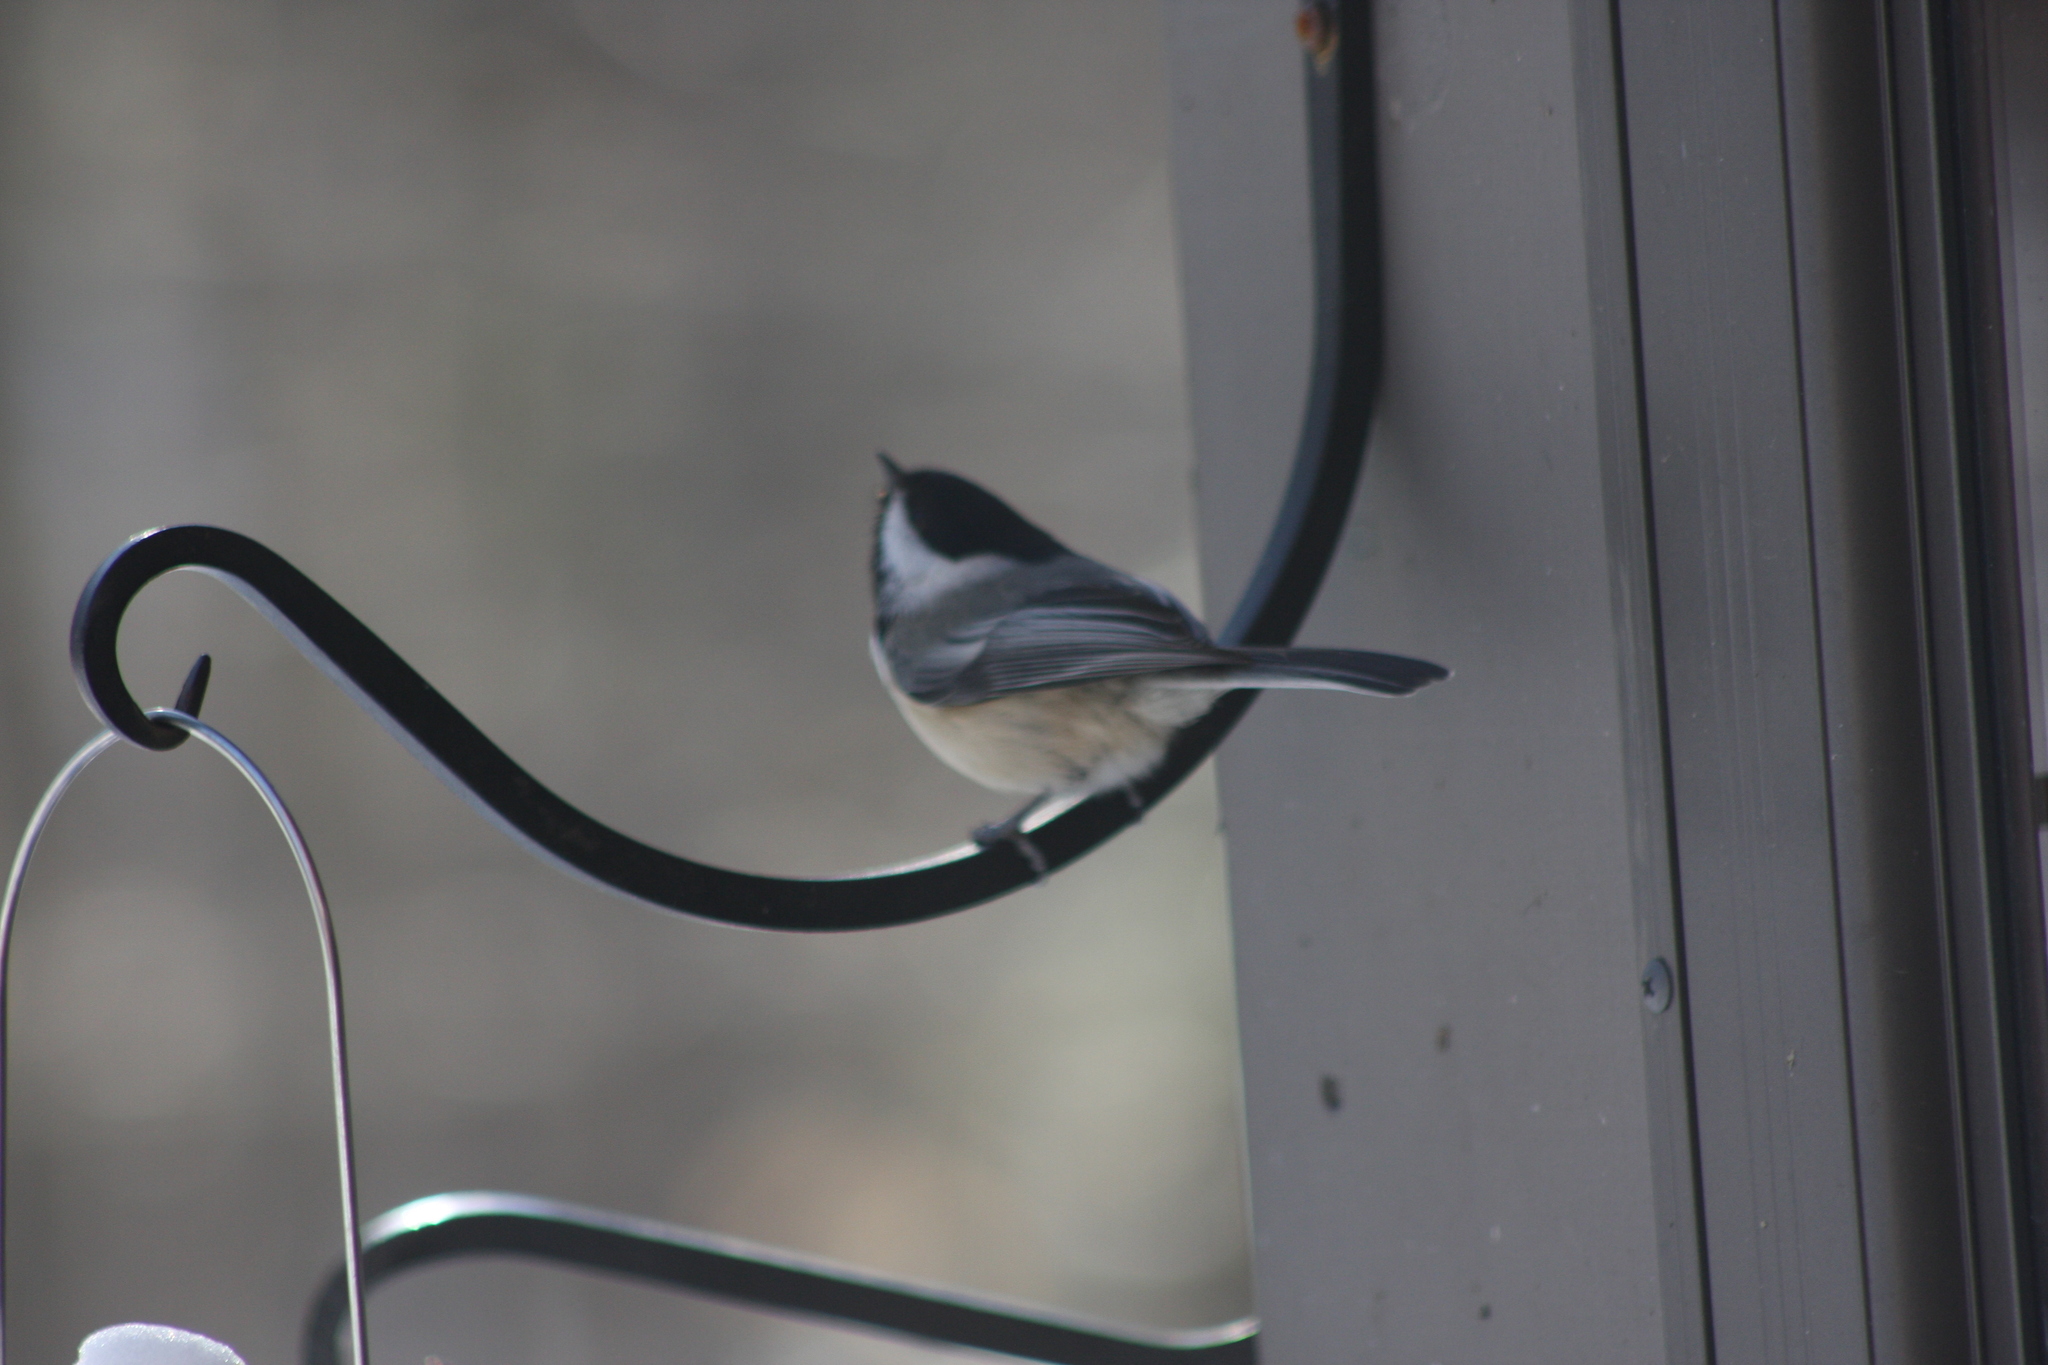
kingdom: Animalia
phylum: Chordata
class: Aves
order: Passeriformes
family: Paridae
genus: Poecile
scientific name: Poecile atricapillus
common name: Black-capped chickadee
